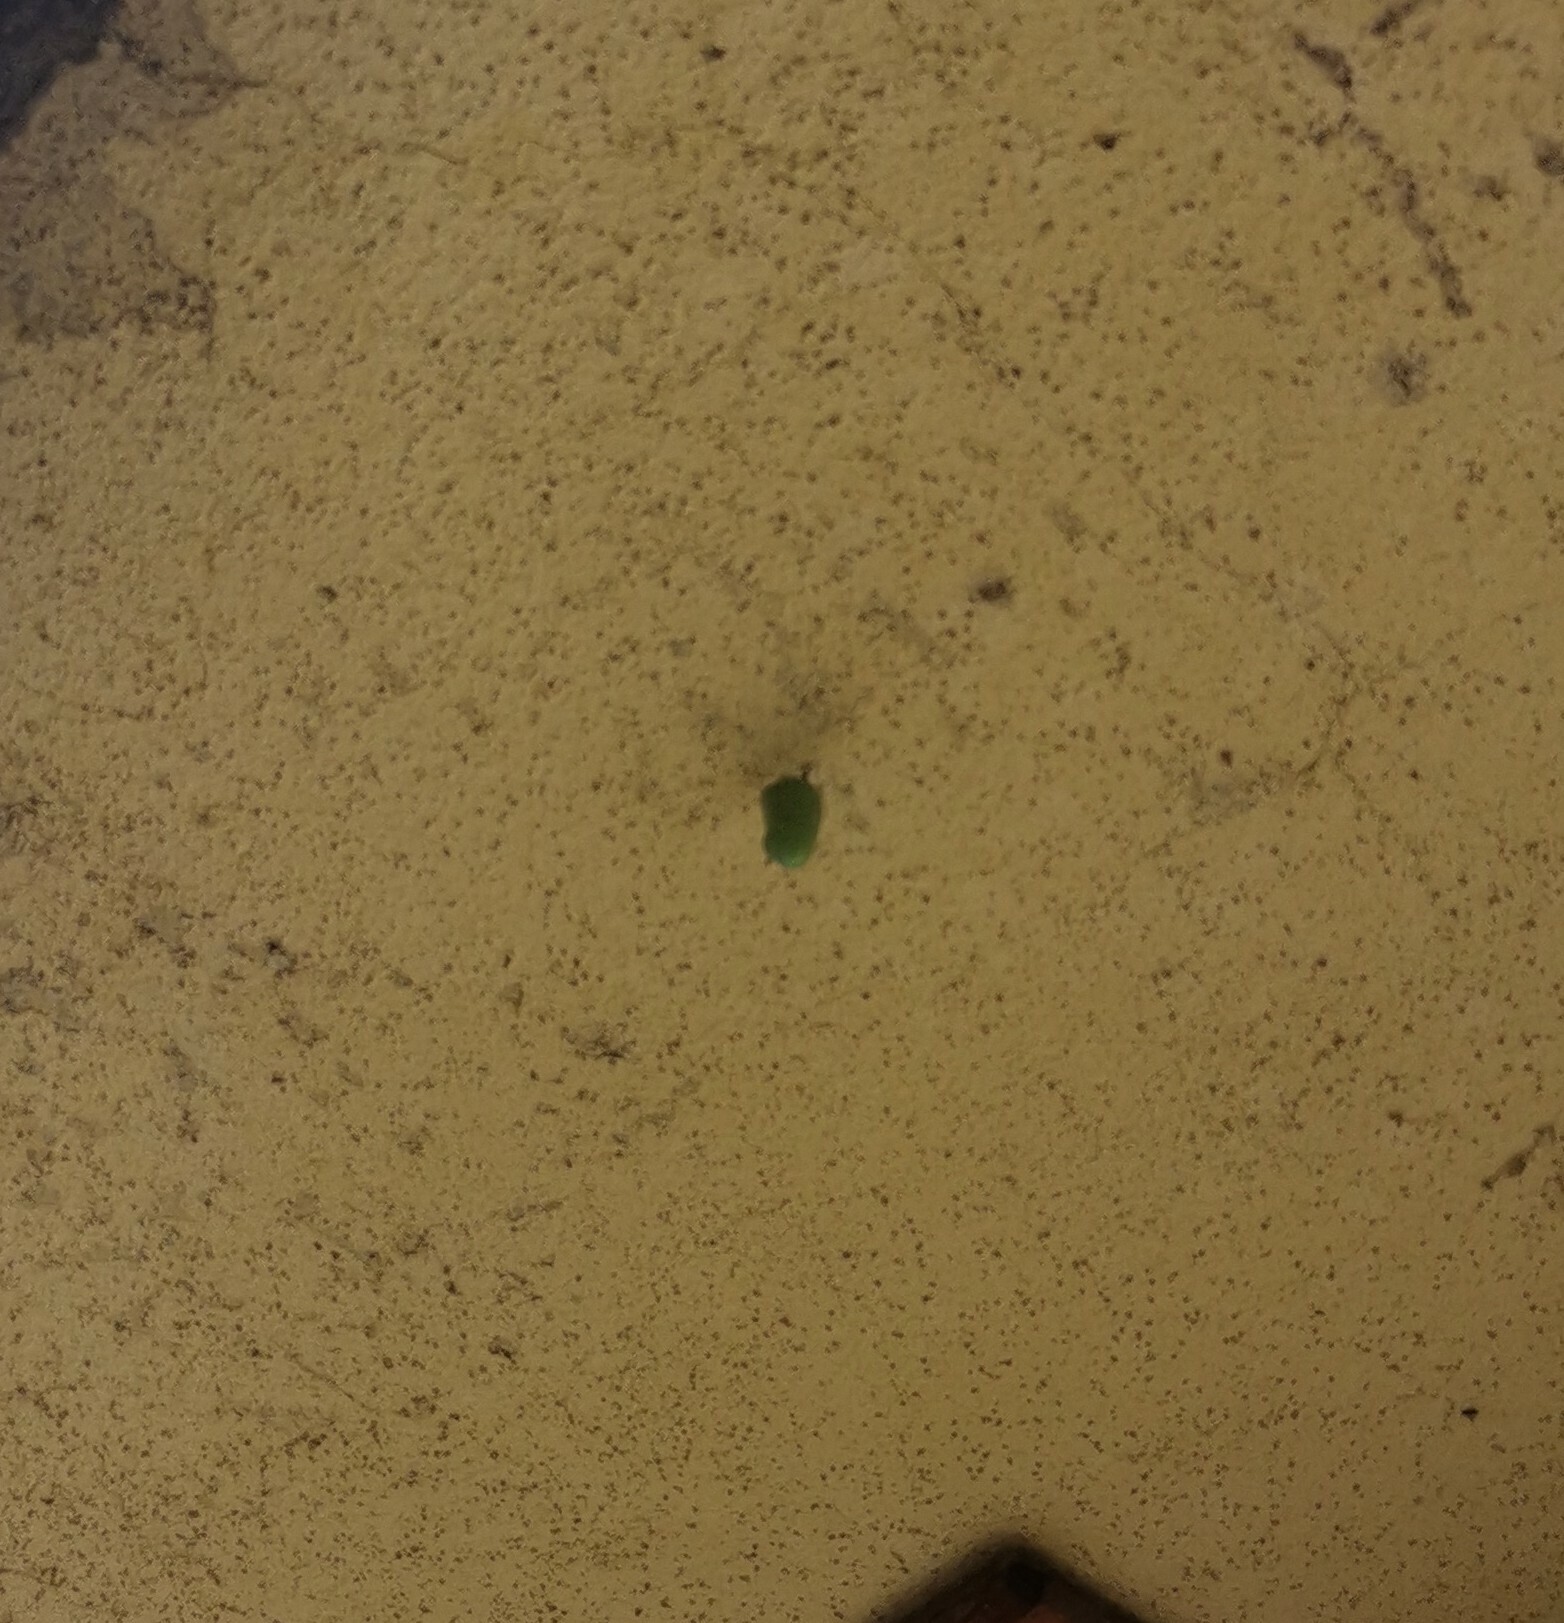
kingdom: Animalia
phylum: Arthropoda
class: Insecta
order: Lepidoptera
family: Nymphalidae
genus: Danaus
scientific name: Danaus plexippus
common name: Monarch
